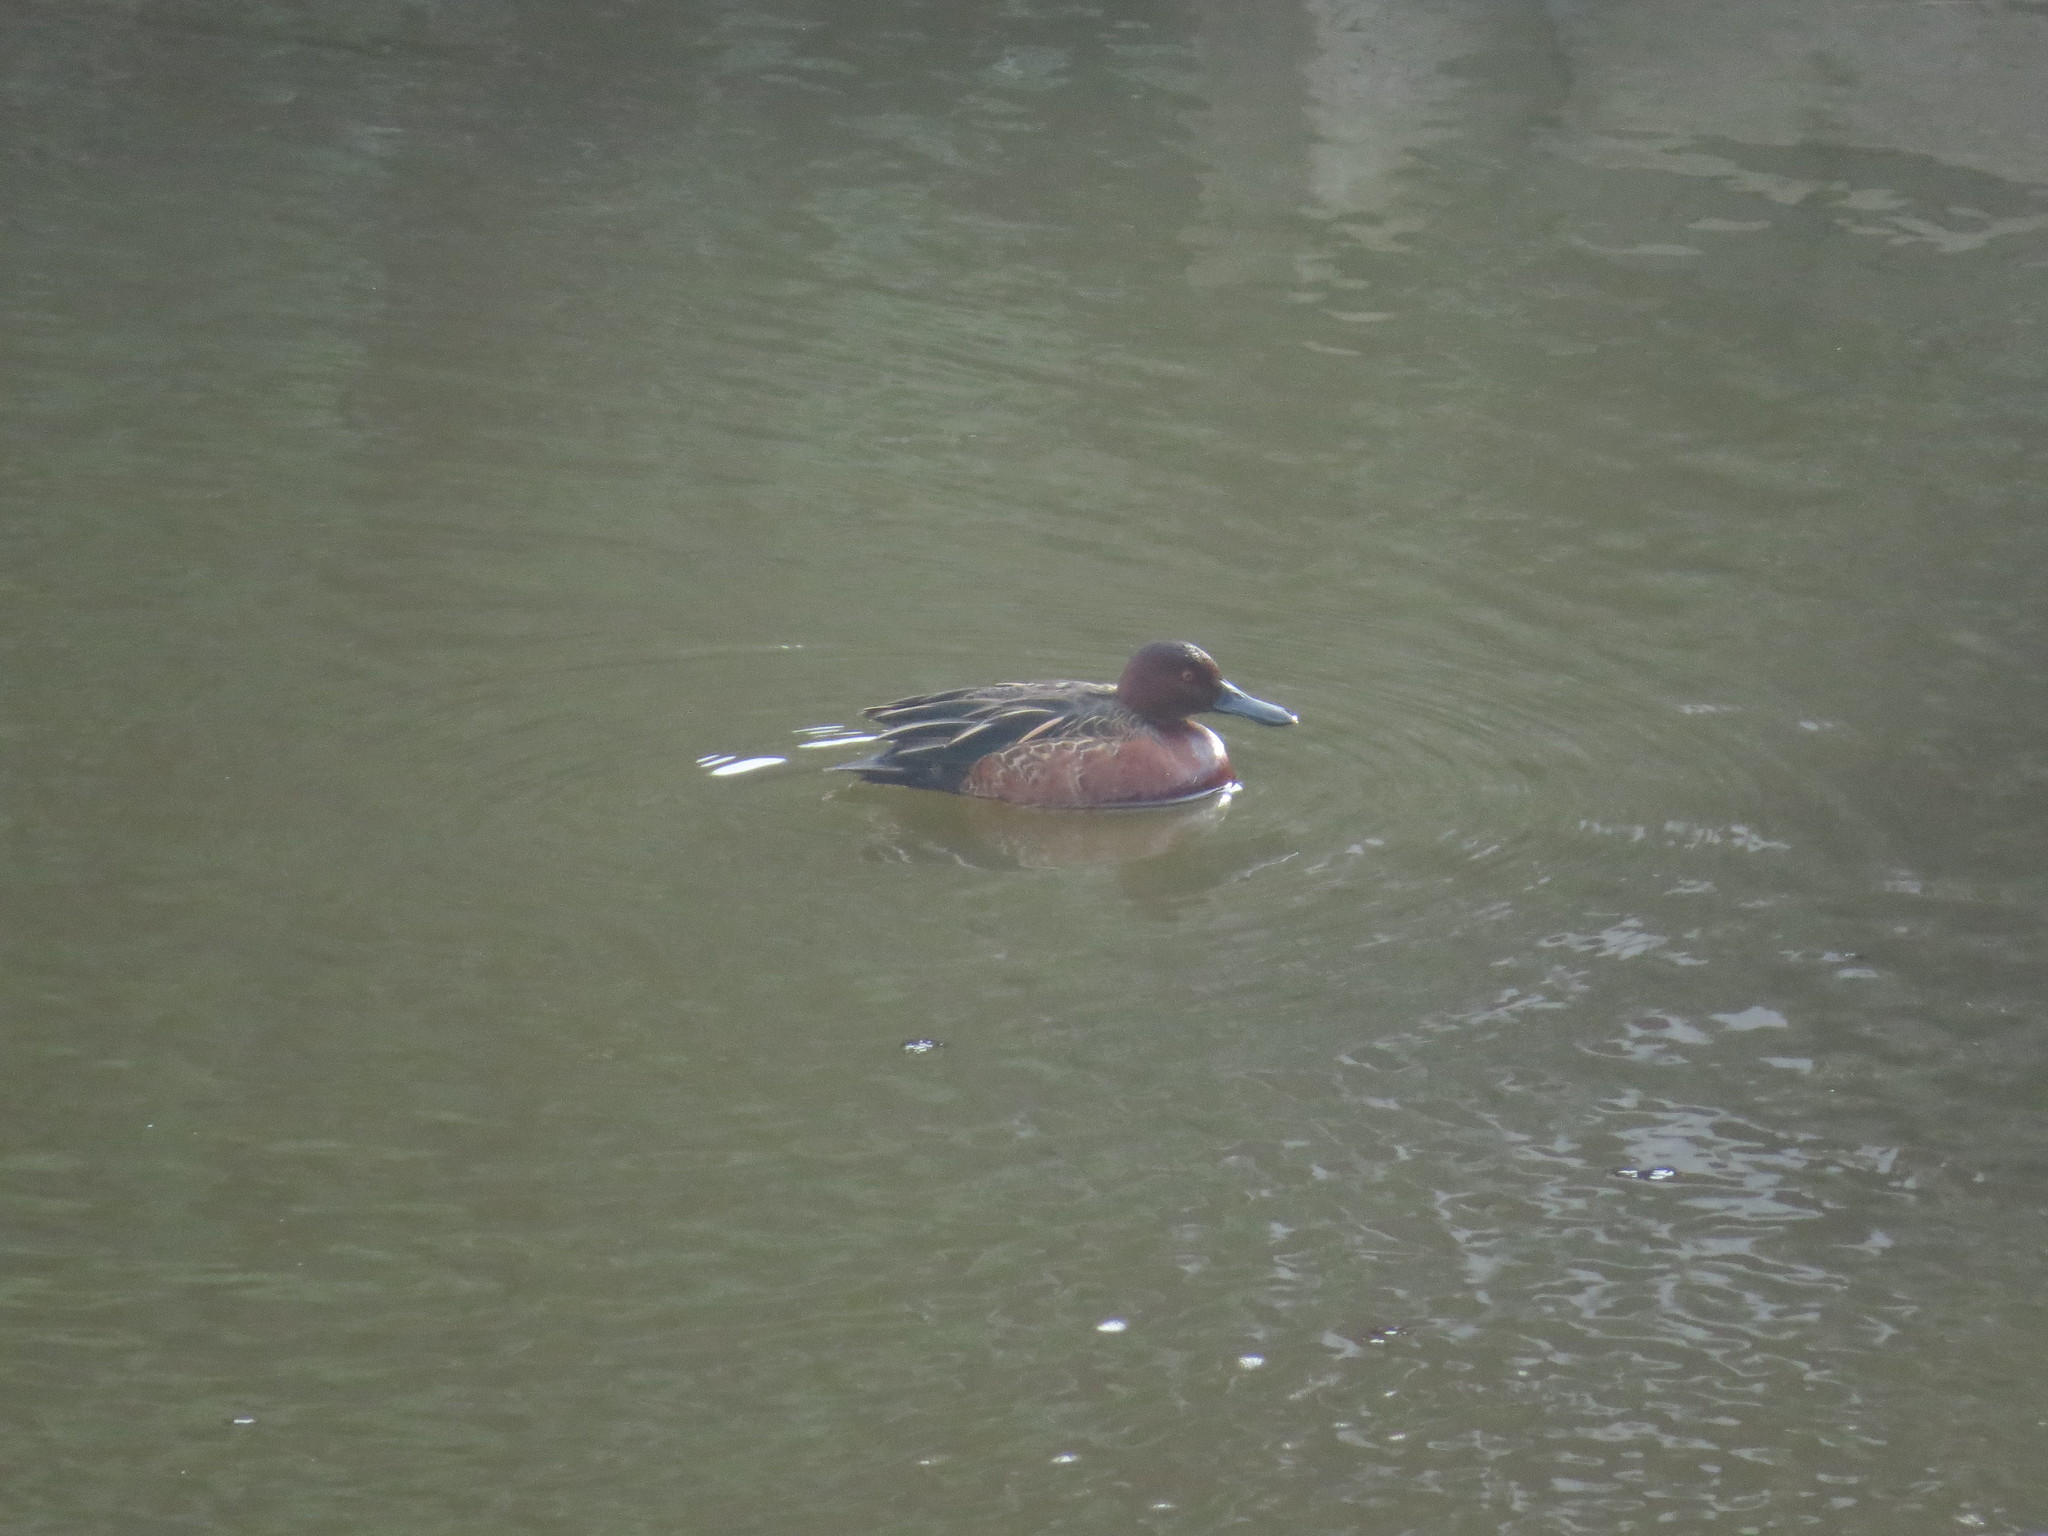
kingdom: Animalia
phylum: Chordata
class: Aves
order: Anseriformes
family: Anatidae
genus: Spatula
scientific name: Spatula cyanoptera
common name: Cinnamon teal
